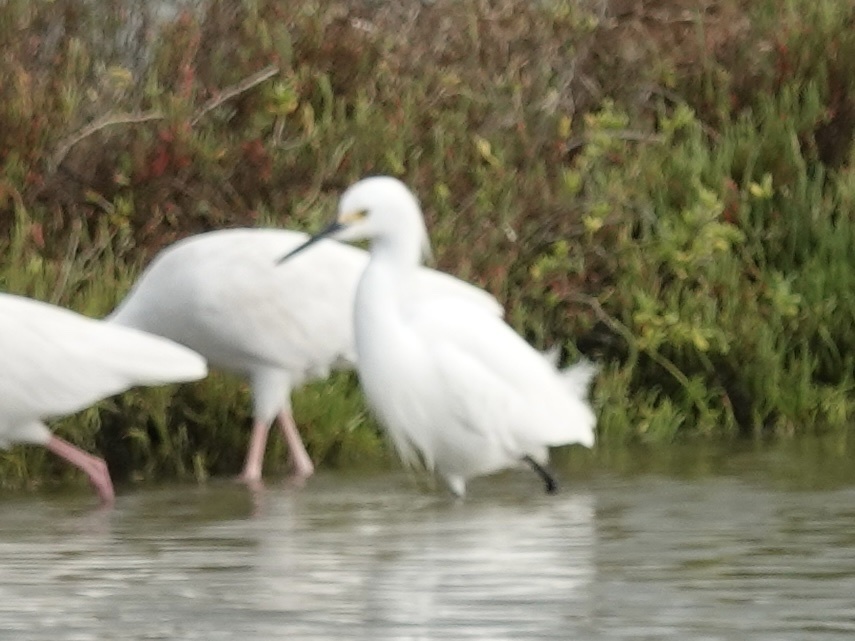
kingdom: Animalia
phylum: Chordata
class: Aves
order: Pelecaniformes
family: Ardeidae
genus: Egretta
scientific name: Egretta thula
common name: Snowy egret
